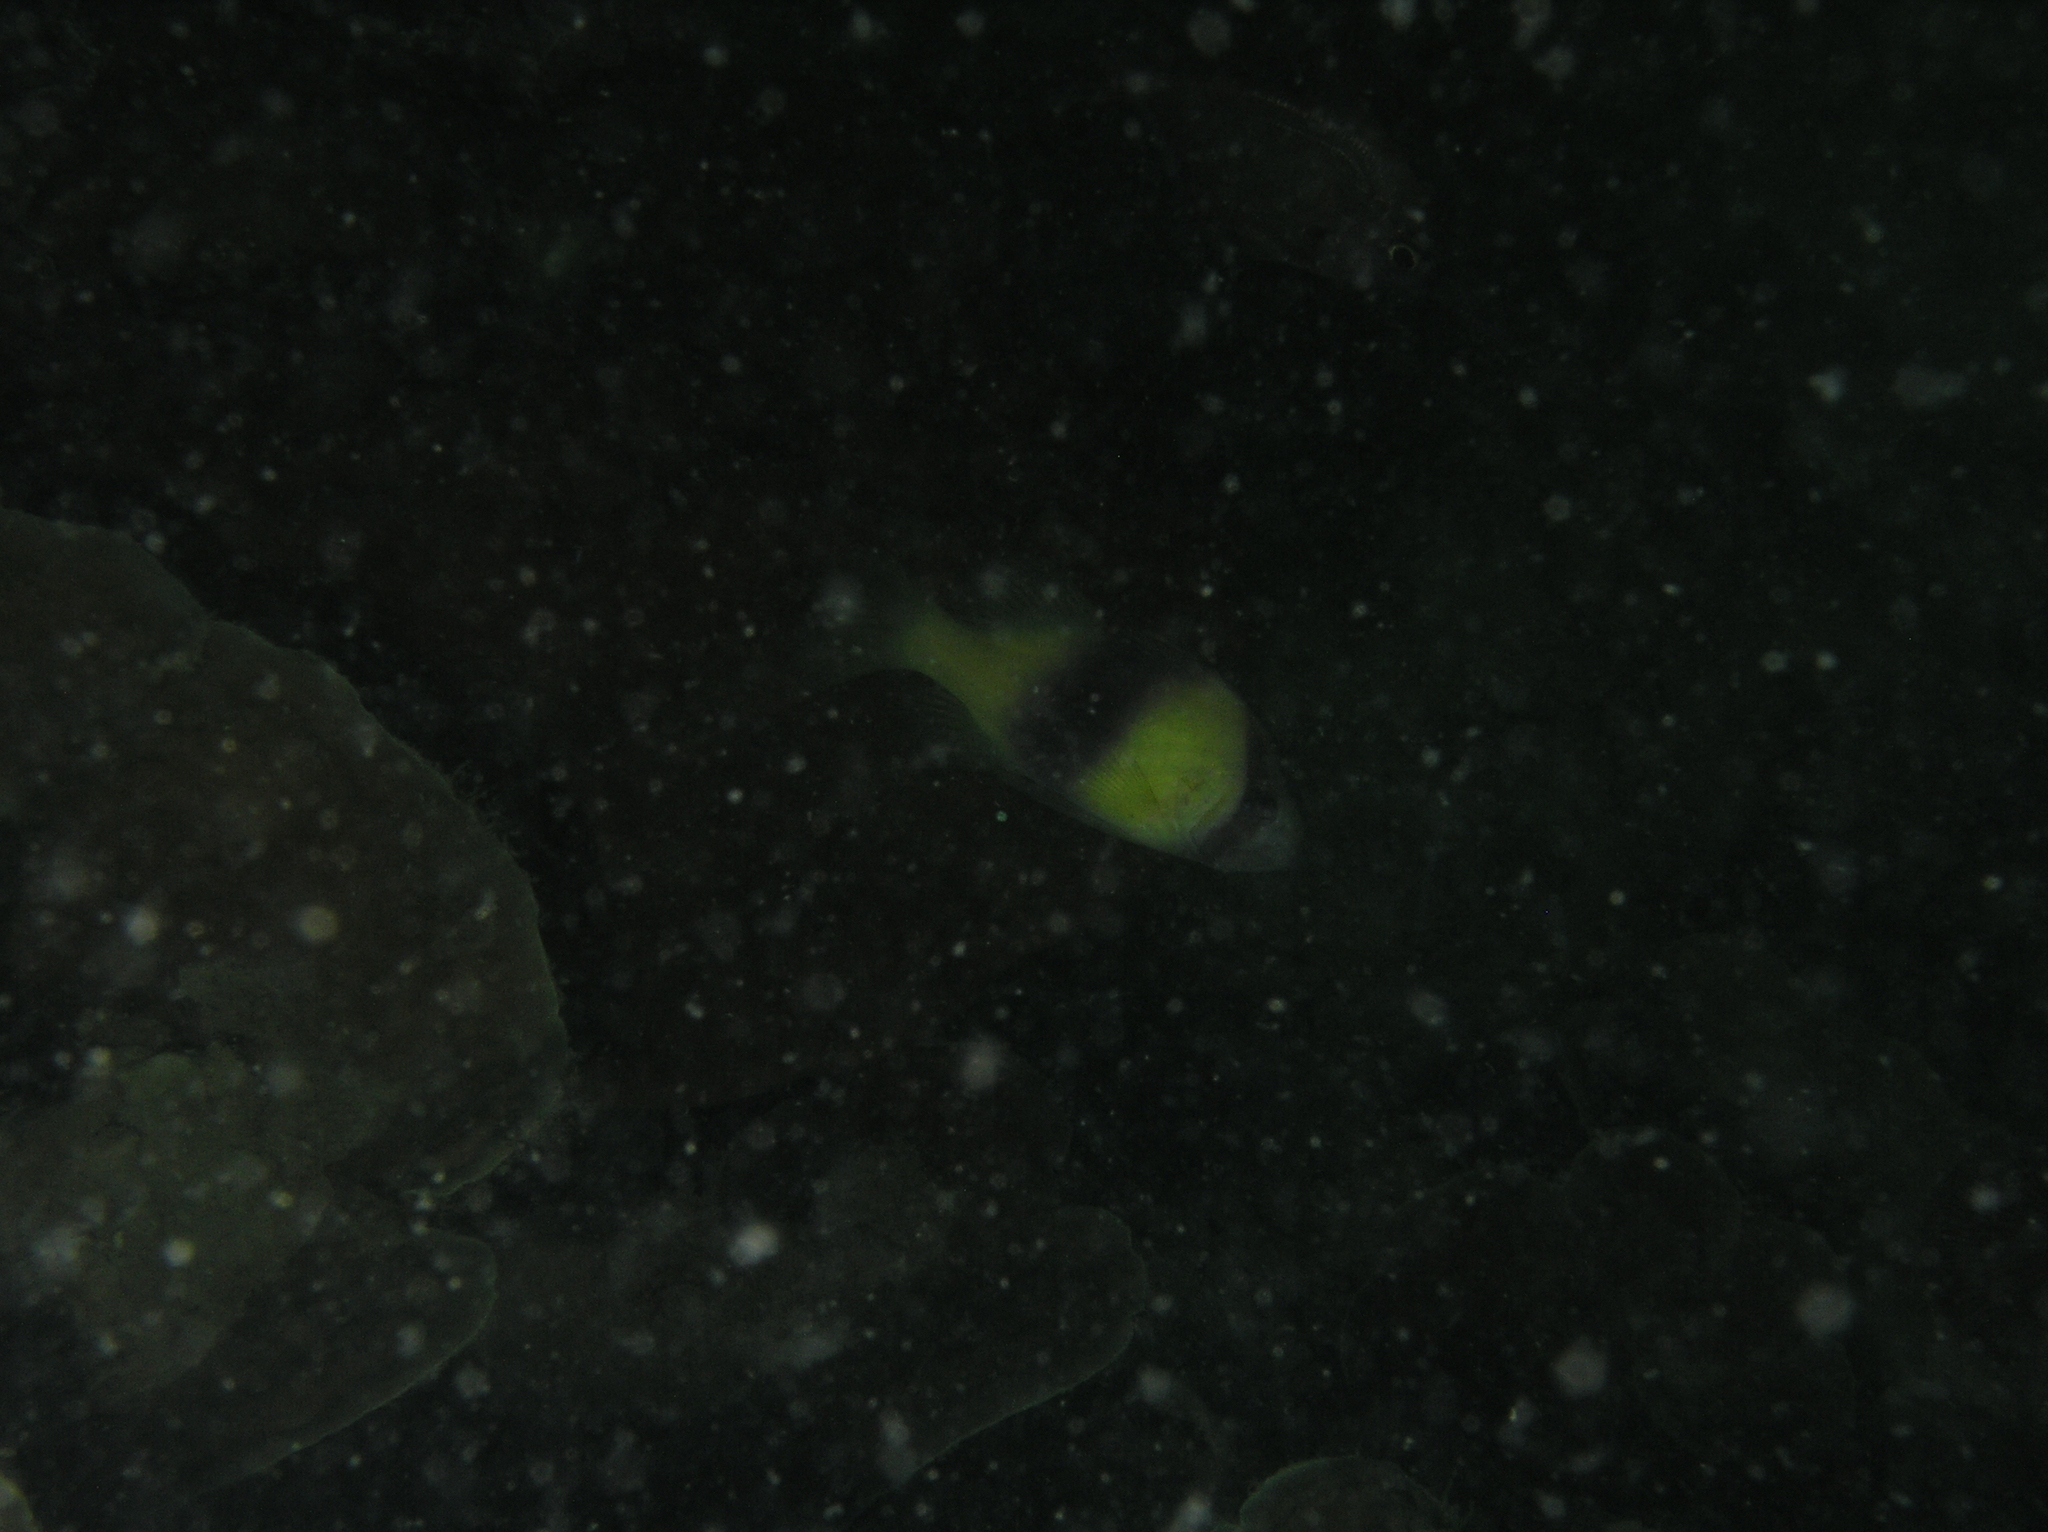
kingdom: Animalia
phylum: Chordata
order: Perciformes
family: Serranidae
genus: Diploprion
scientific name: Diploprion bifasciatum
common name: Barred soapfish
